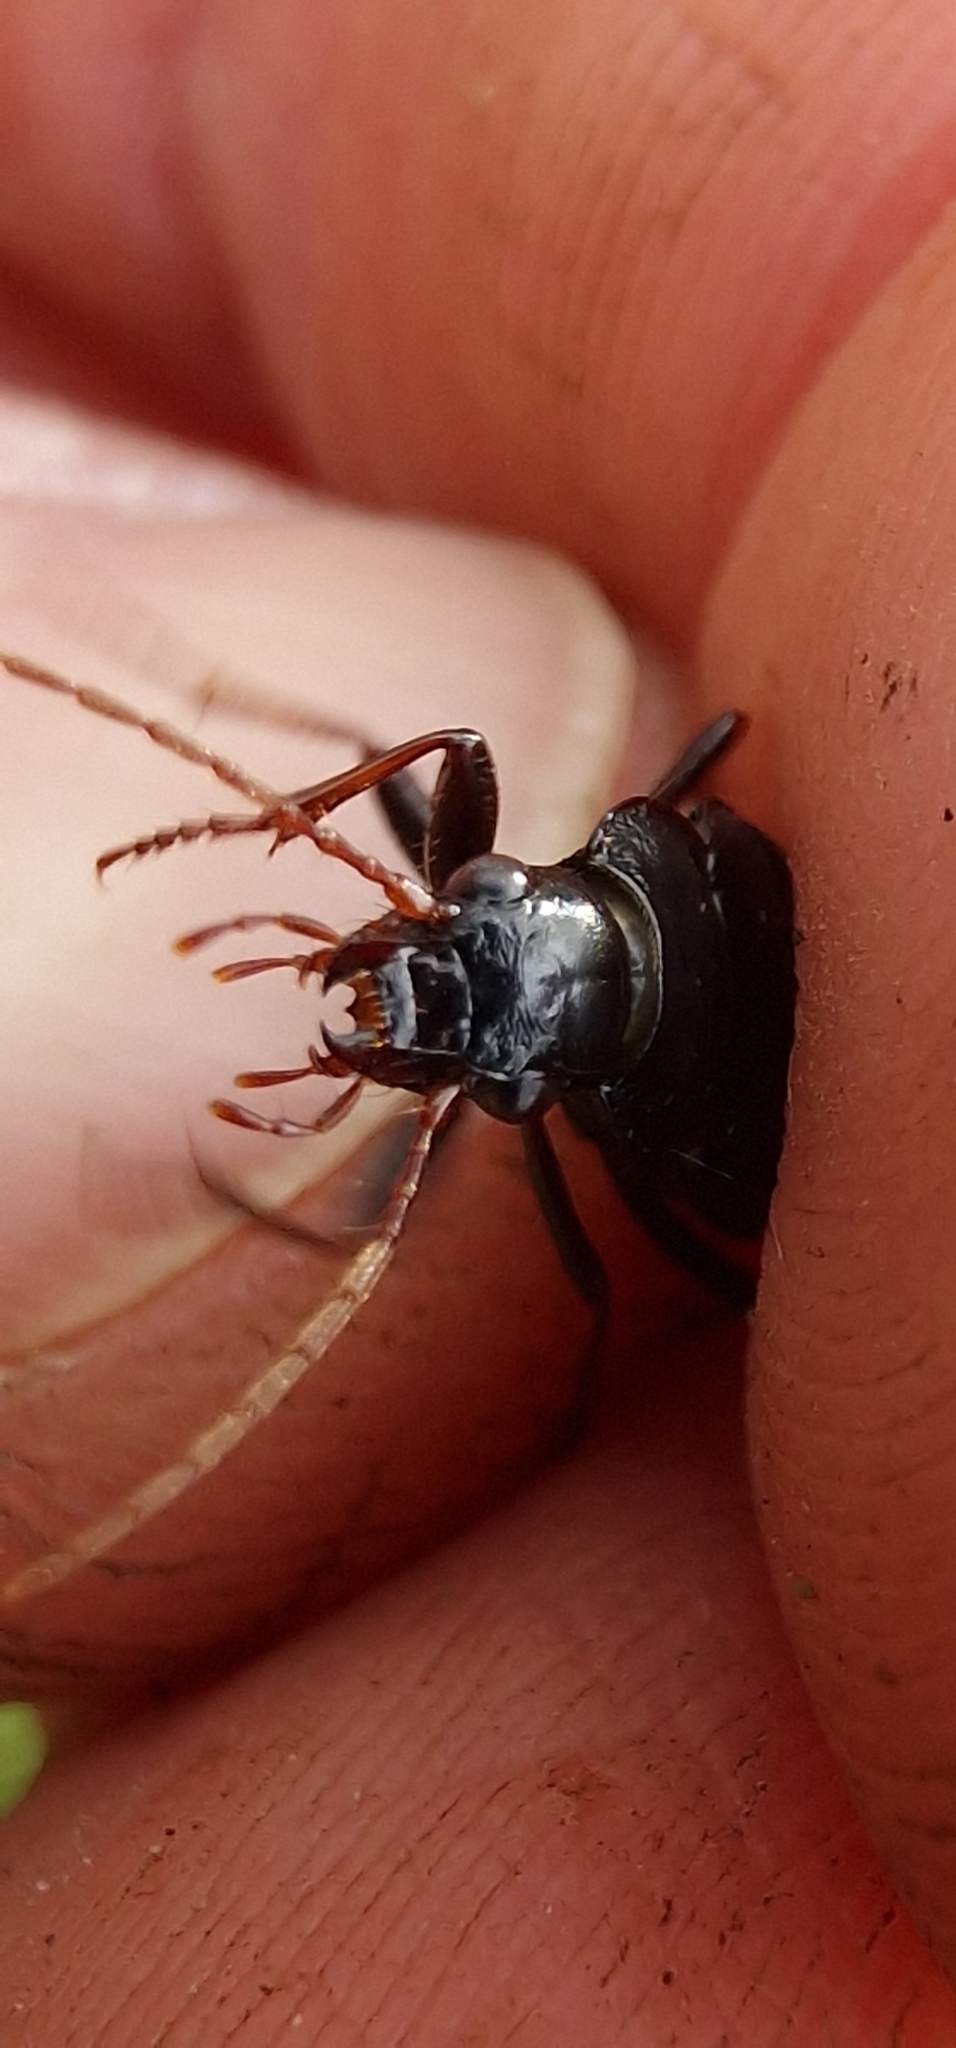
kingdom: Animalia
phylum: Arthropoda
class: Insecta
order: Coleoptera
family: Carabidae
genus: Nebria
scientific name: Nebria brevicollis
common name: Short-necked gazelle beetle
